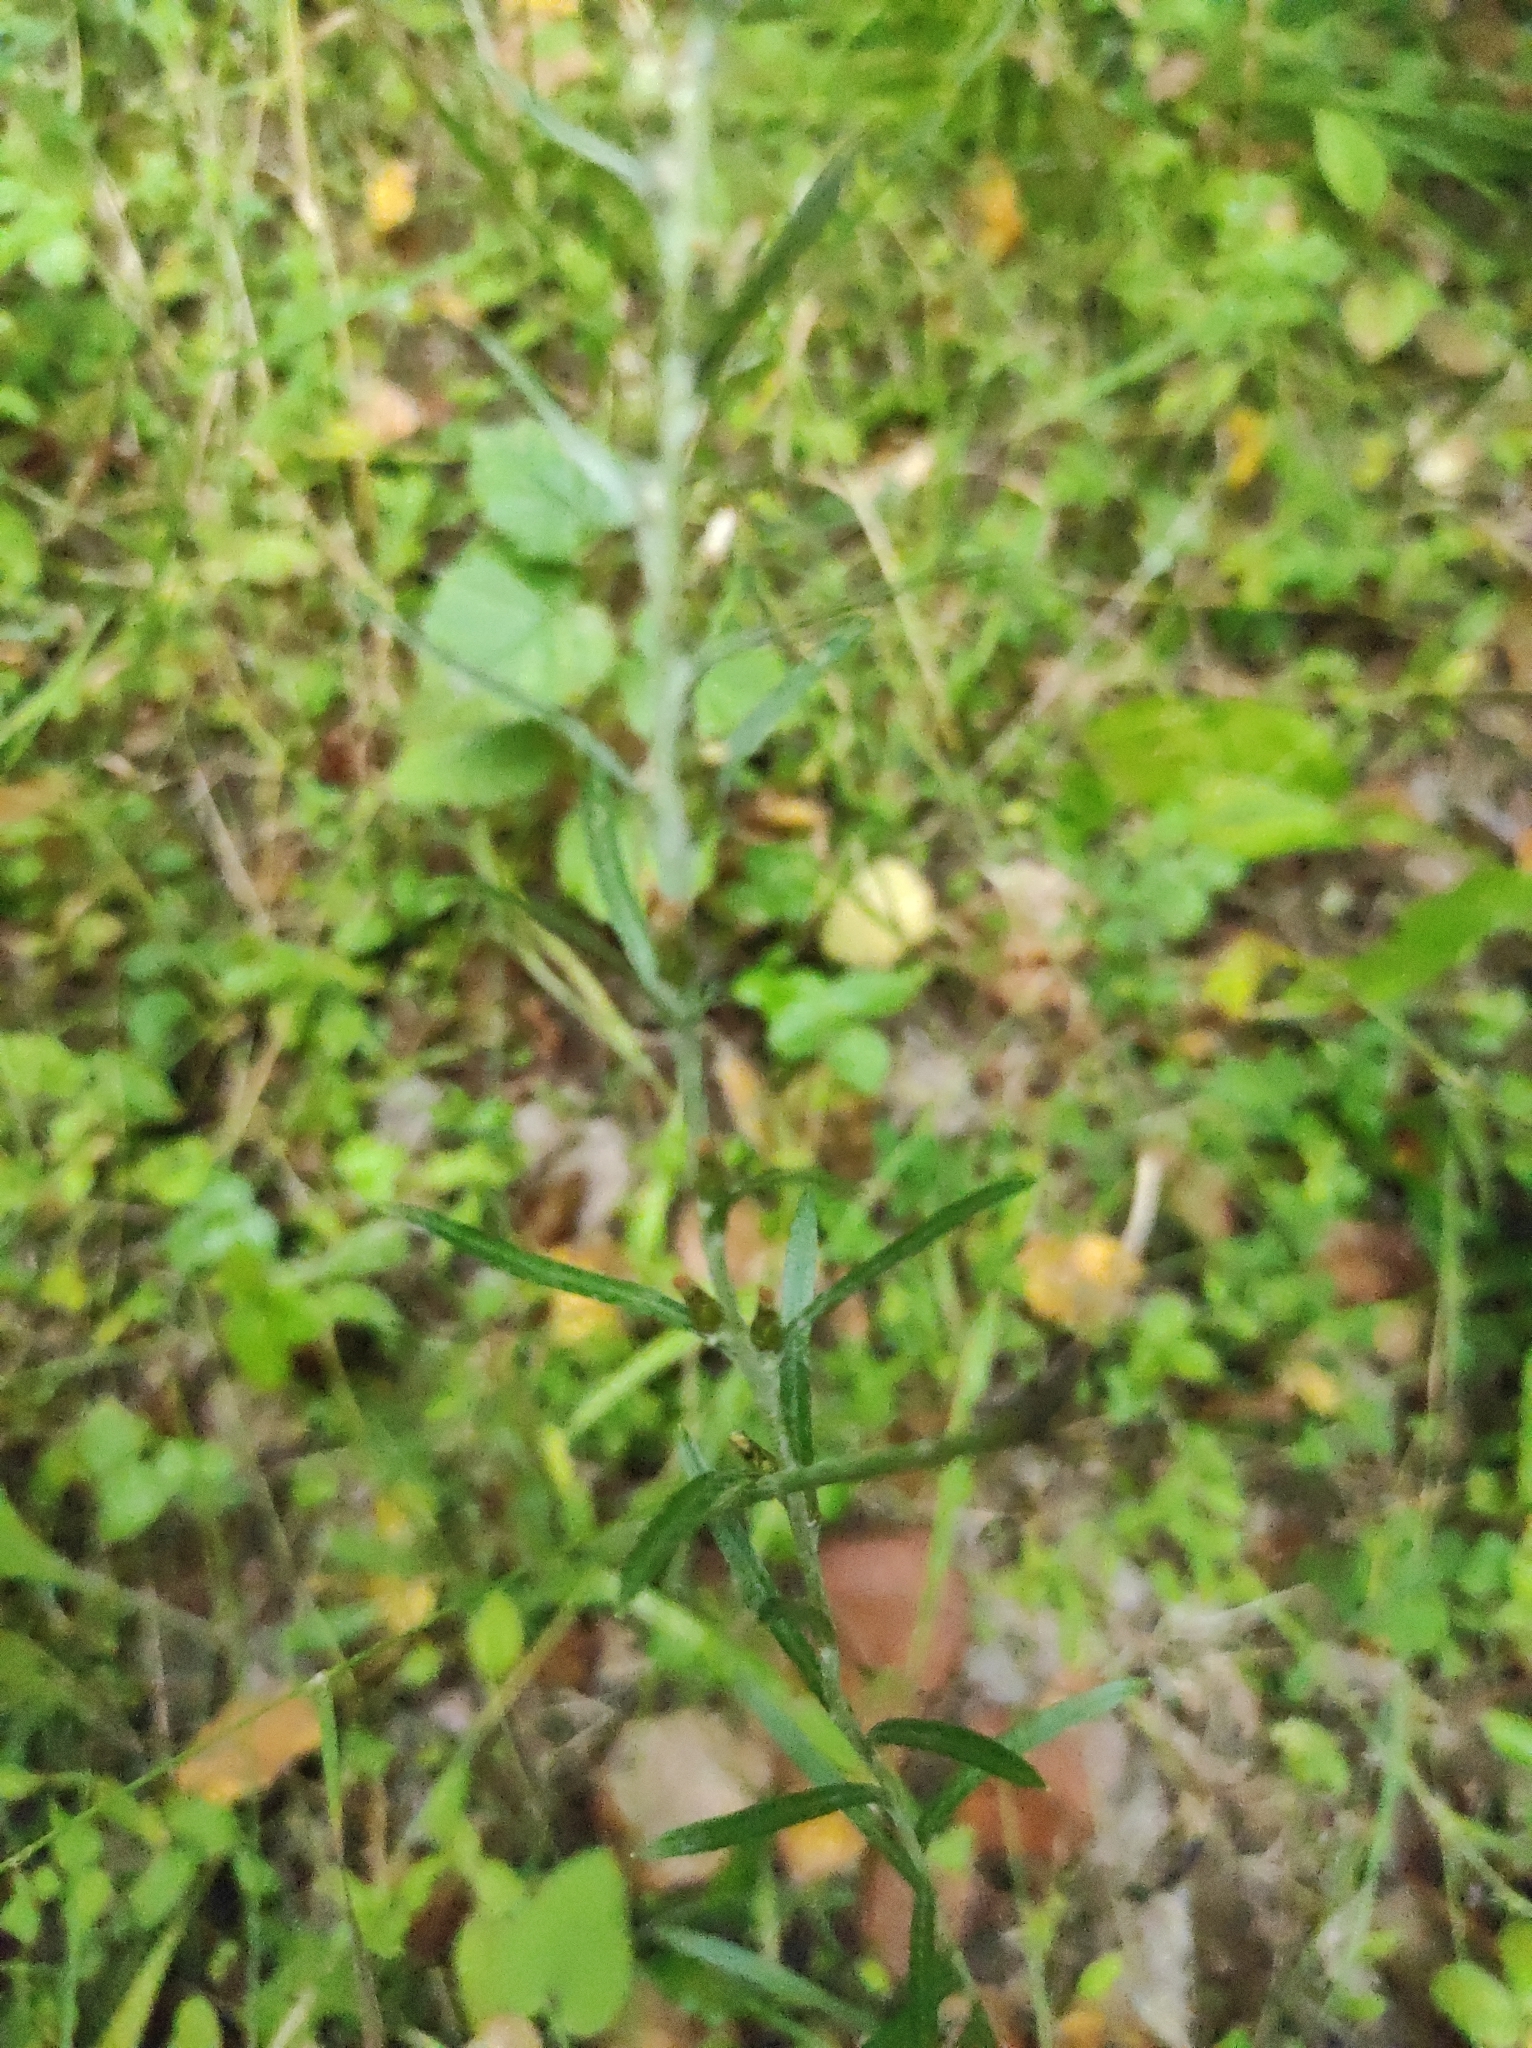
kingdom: Plantae
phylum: Tracheophyta
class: Magnoliopsida
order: Asterales
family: Asteraceae
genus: Omalotheca
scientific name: Omalotheca sylvatica
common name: Heath cudweed
